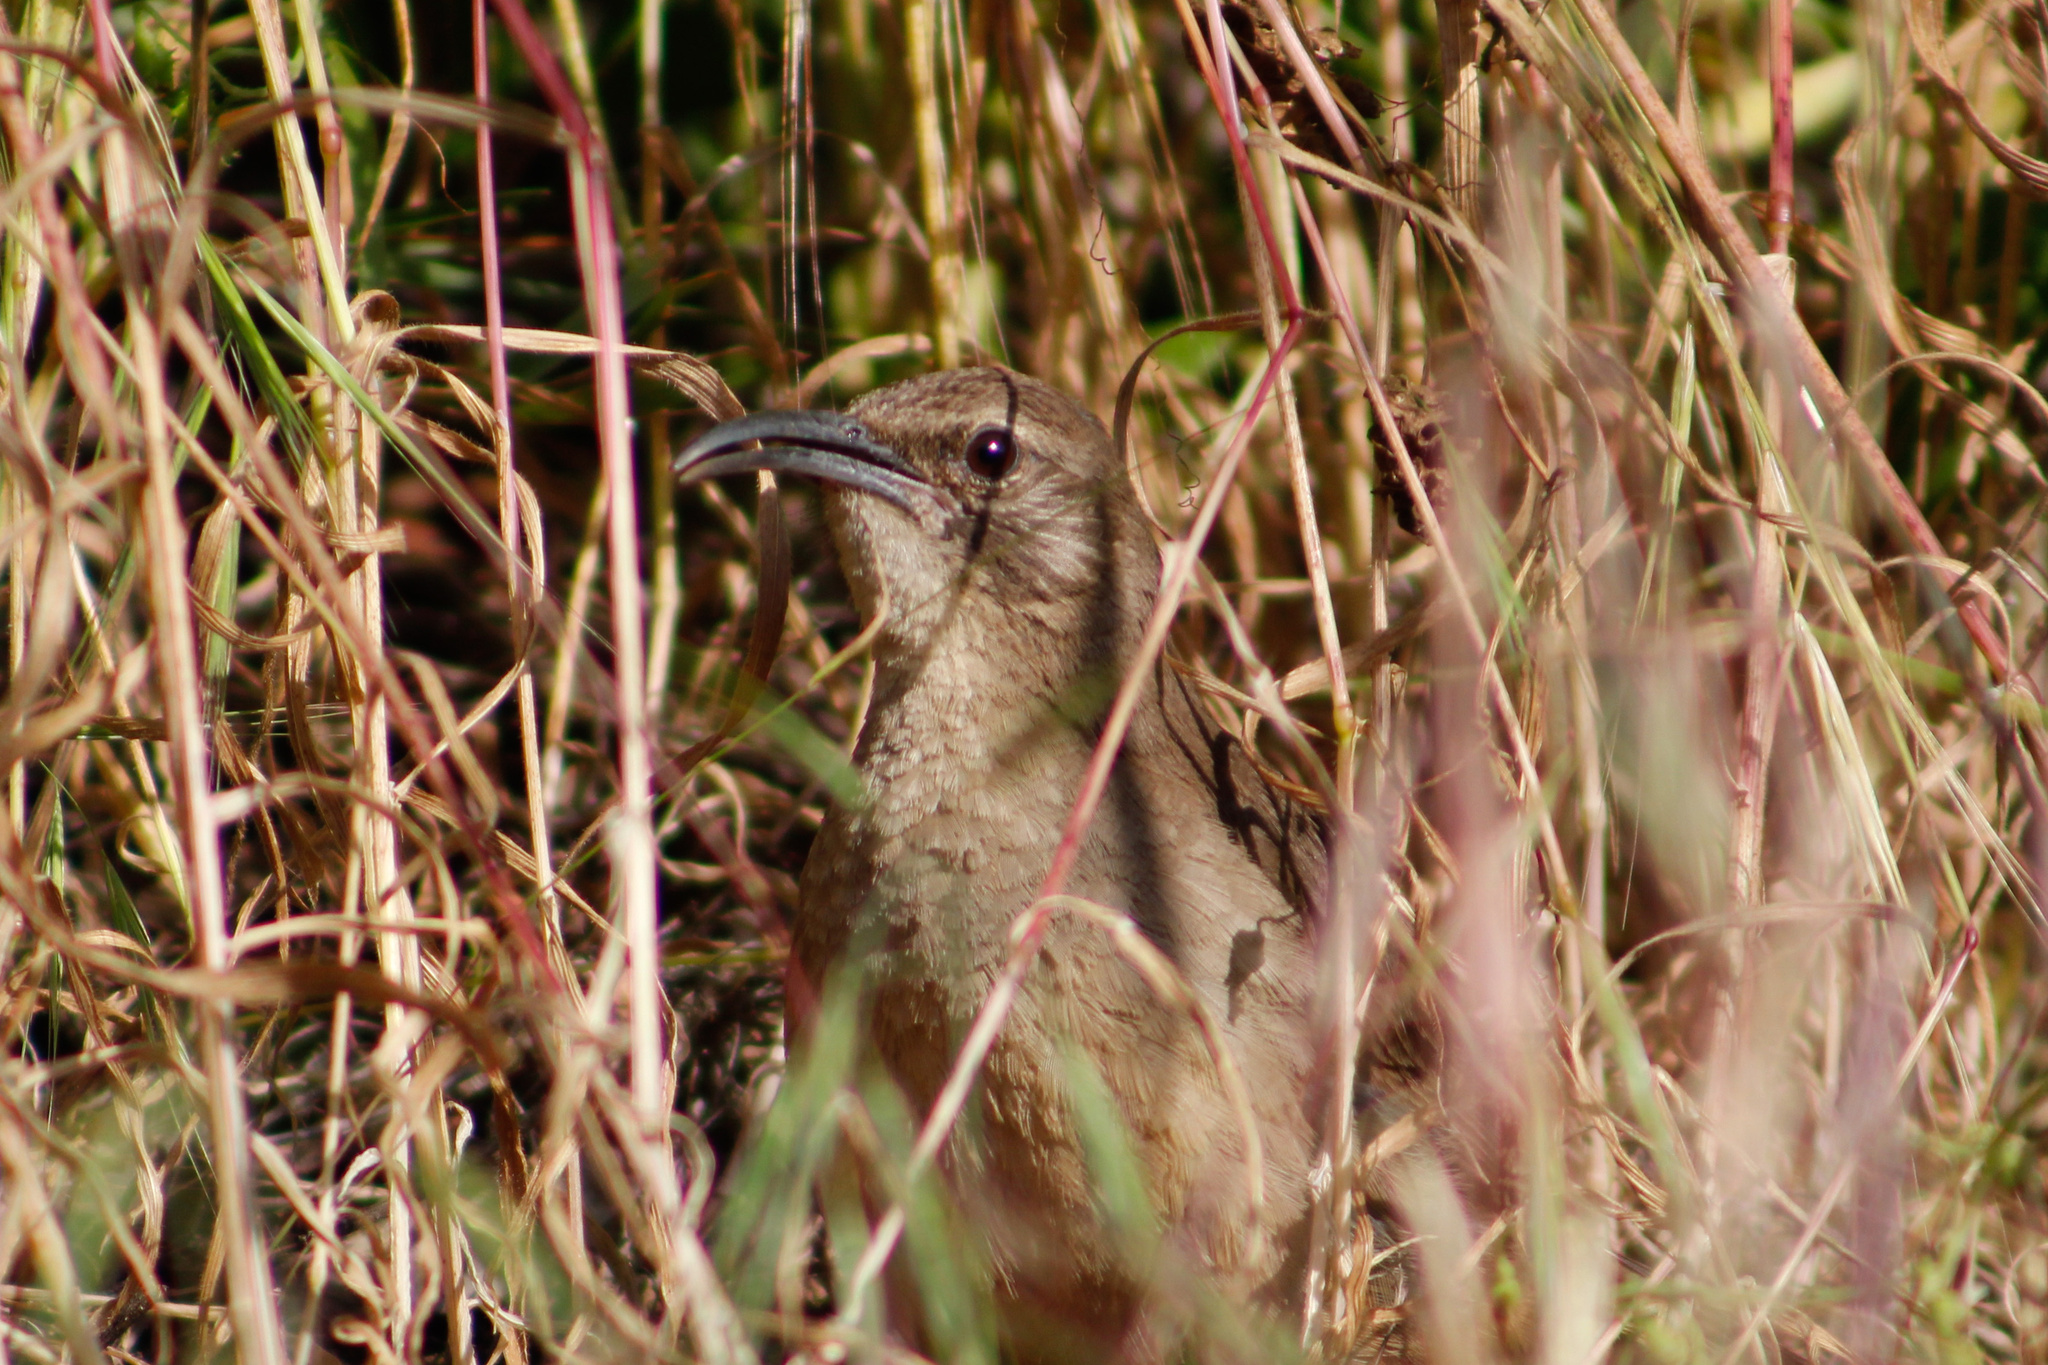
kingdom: Animalia
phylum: Chordata
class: Aves
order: Passeriformes
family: Mimidae
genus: Toxostoma
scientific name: Toxostoma redivivum
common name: California thrasher
